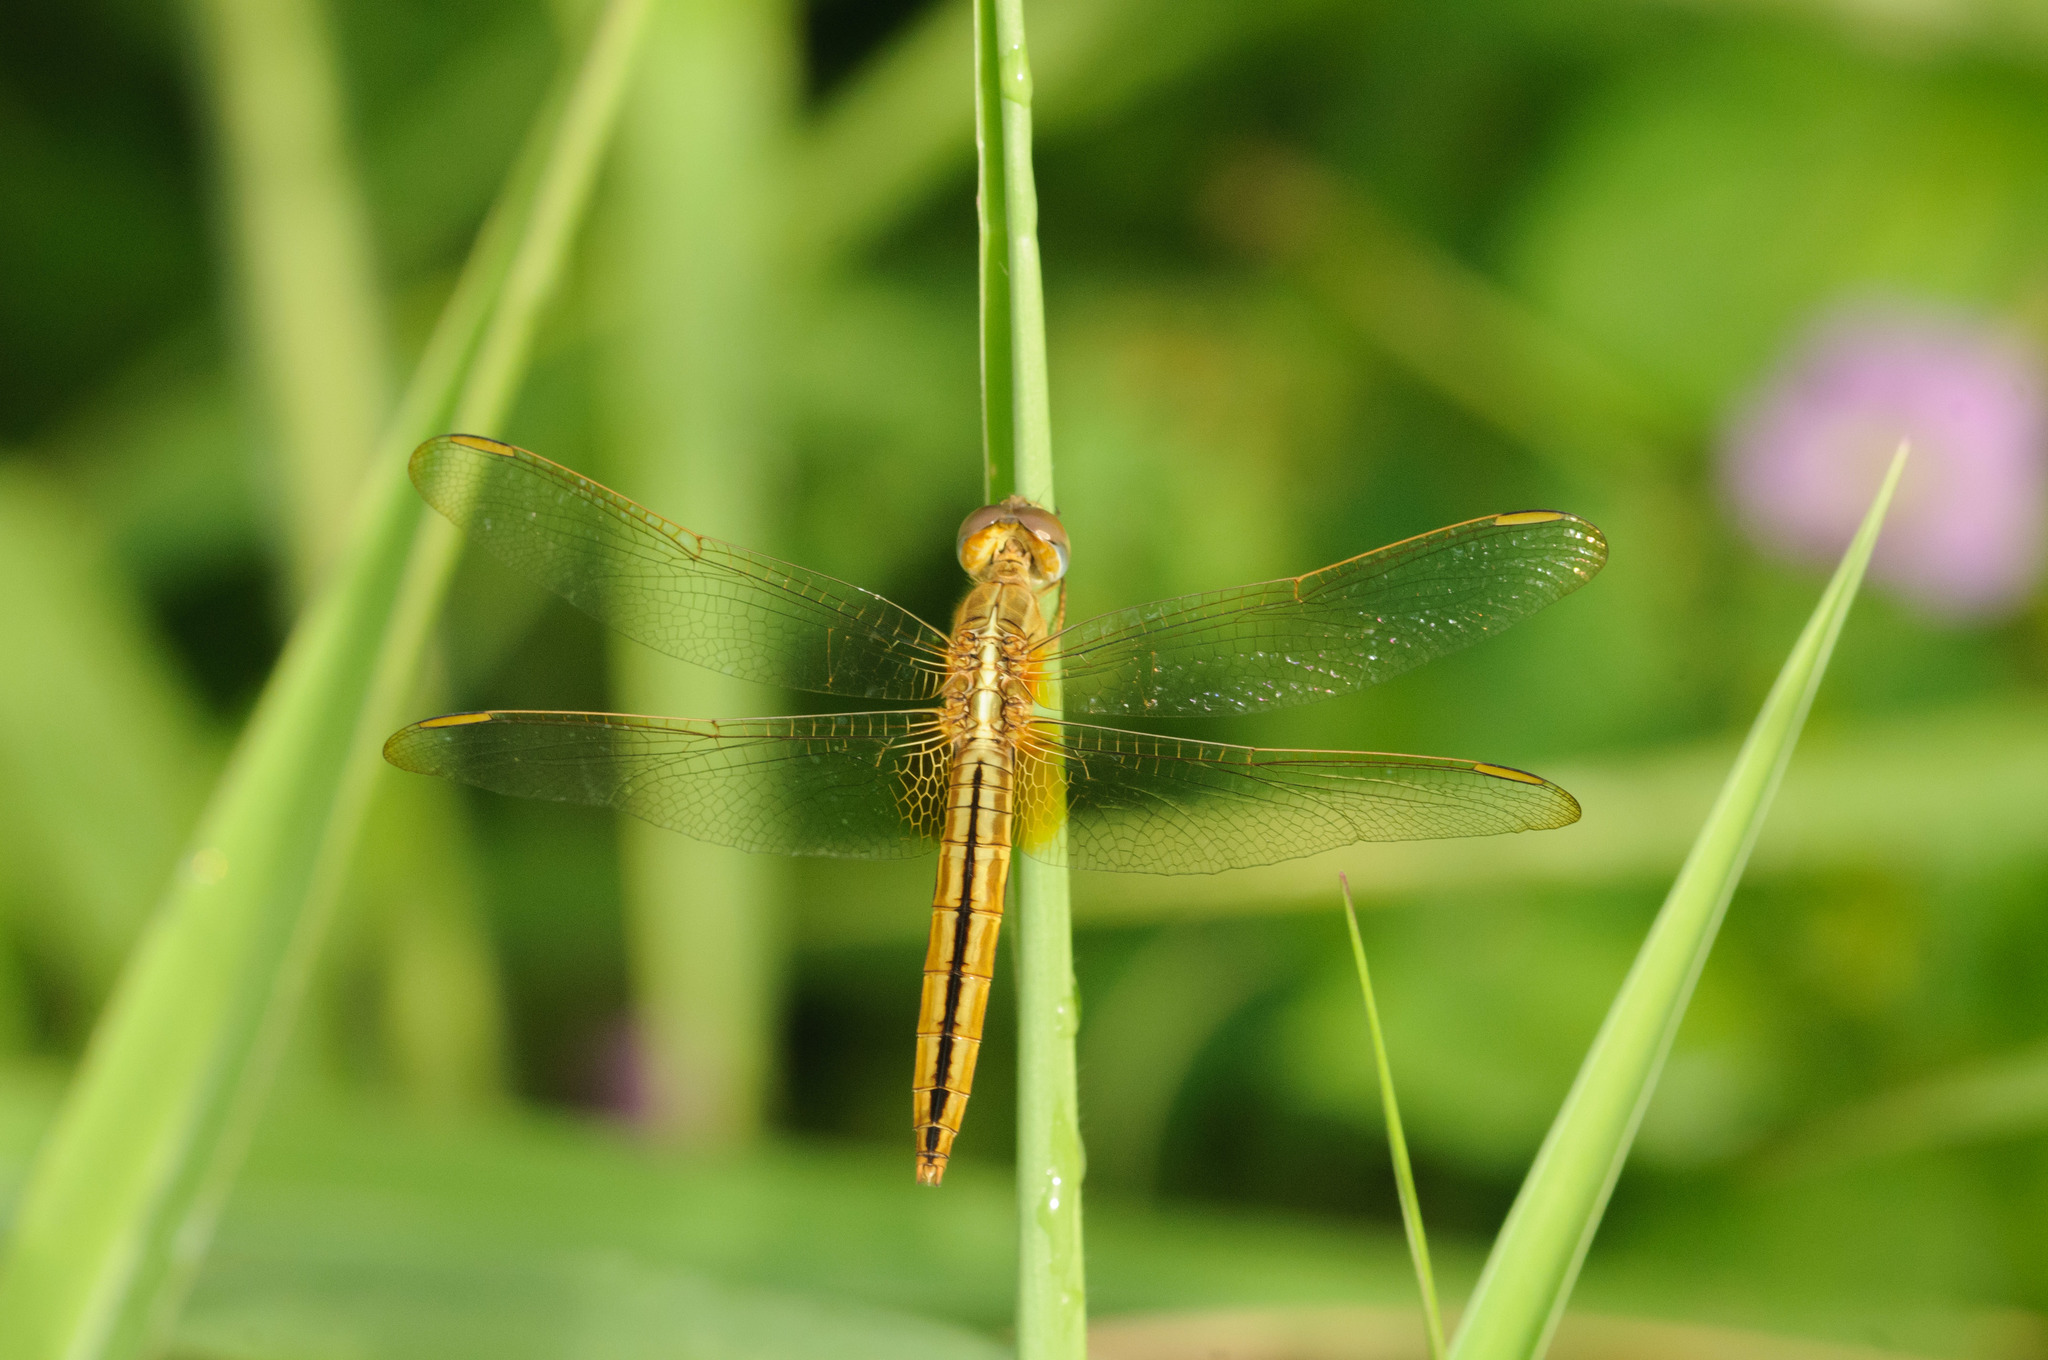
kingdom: Animalia
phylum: Arthropoda
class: Insecta
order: Odonata
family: Libellulidae
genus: Crocothemis
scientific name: Crocothemis servilia
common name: Scarlet skimmer
